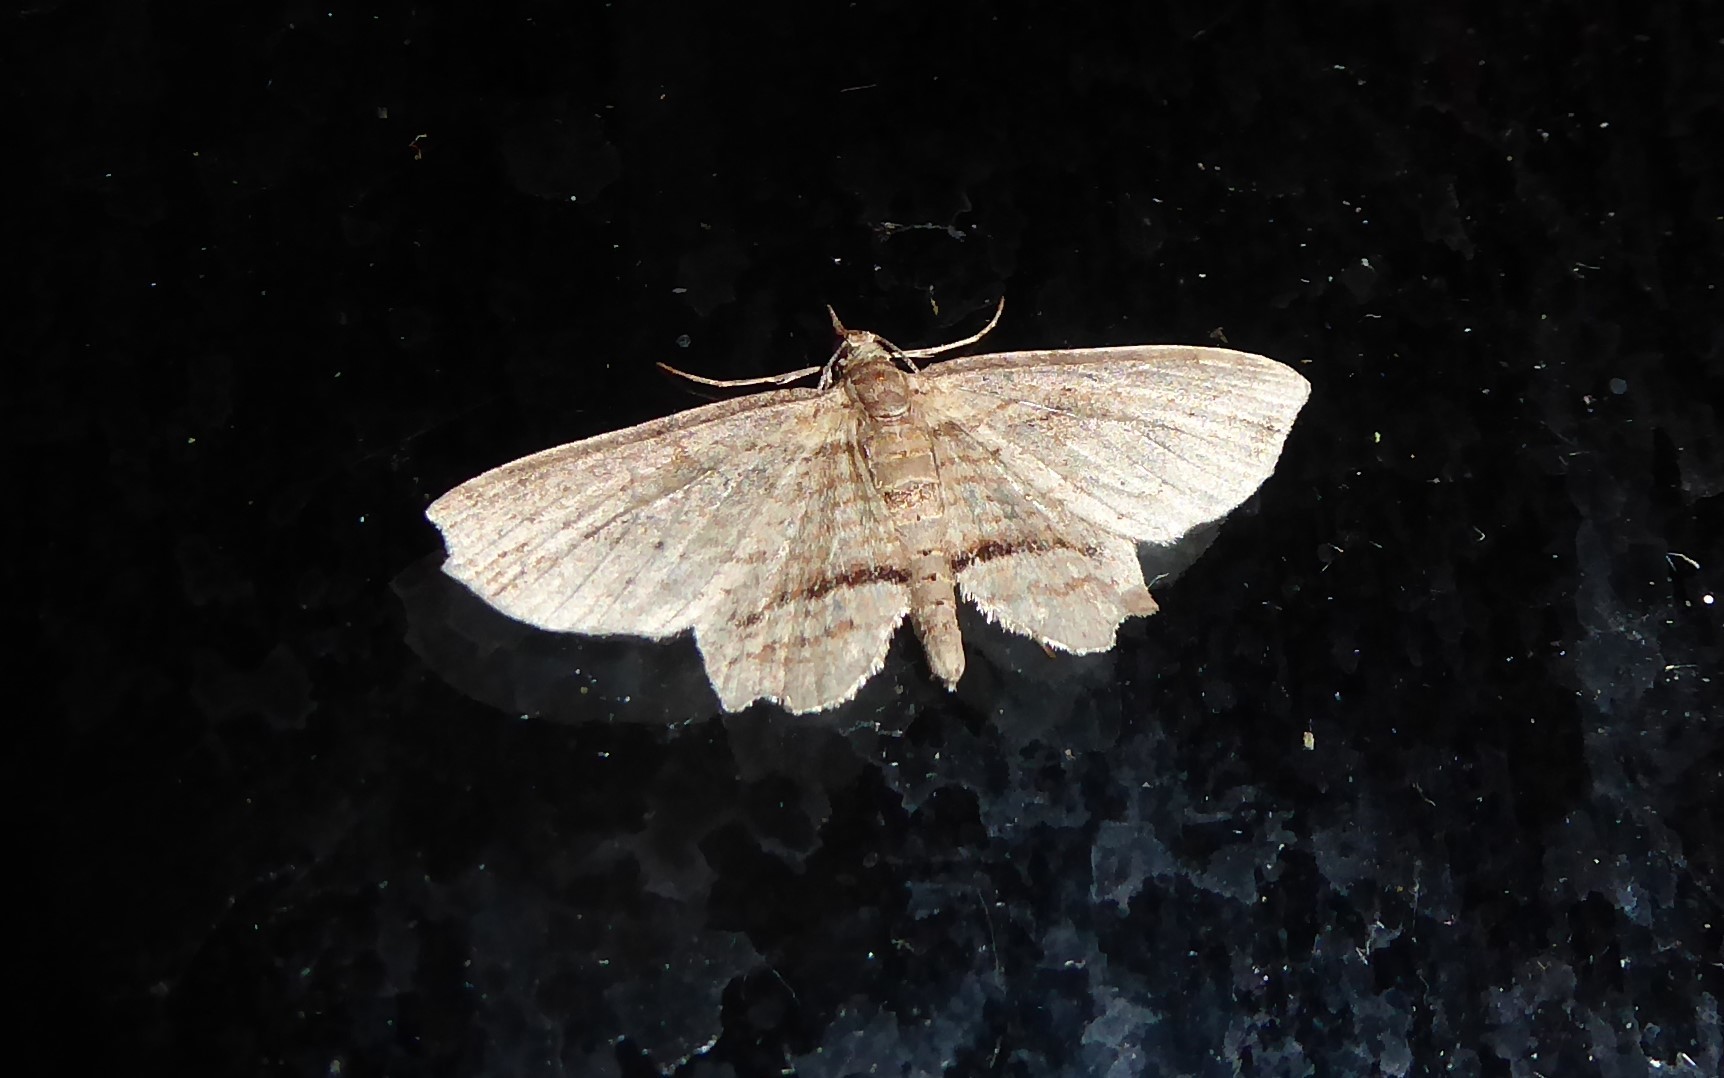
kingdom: Animalia
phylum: Arthropoda
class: Insecta
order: Lepidoptera
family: Geometridae
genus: Chloroclystis
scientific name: Chloroclystis filata
